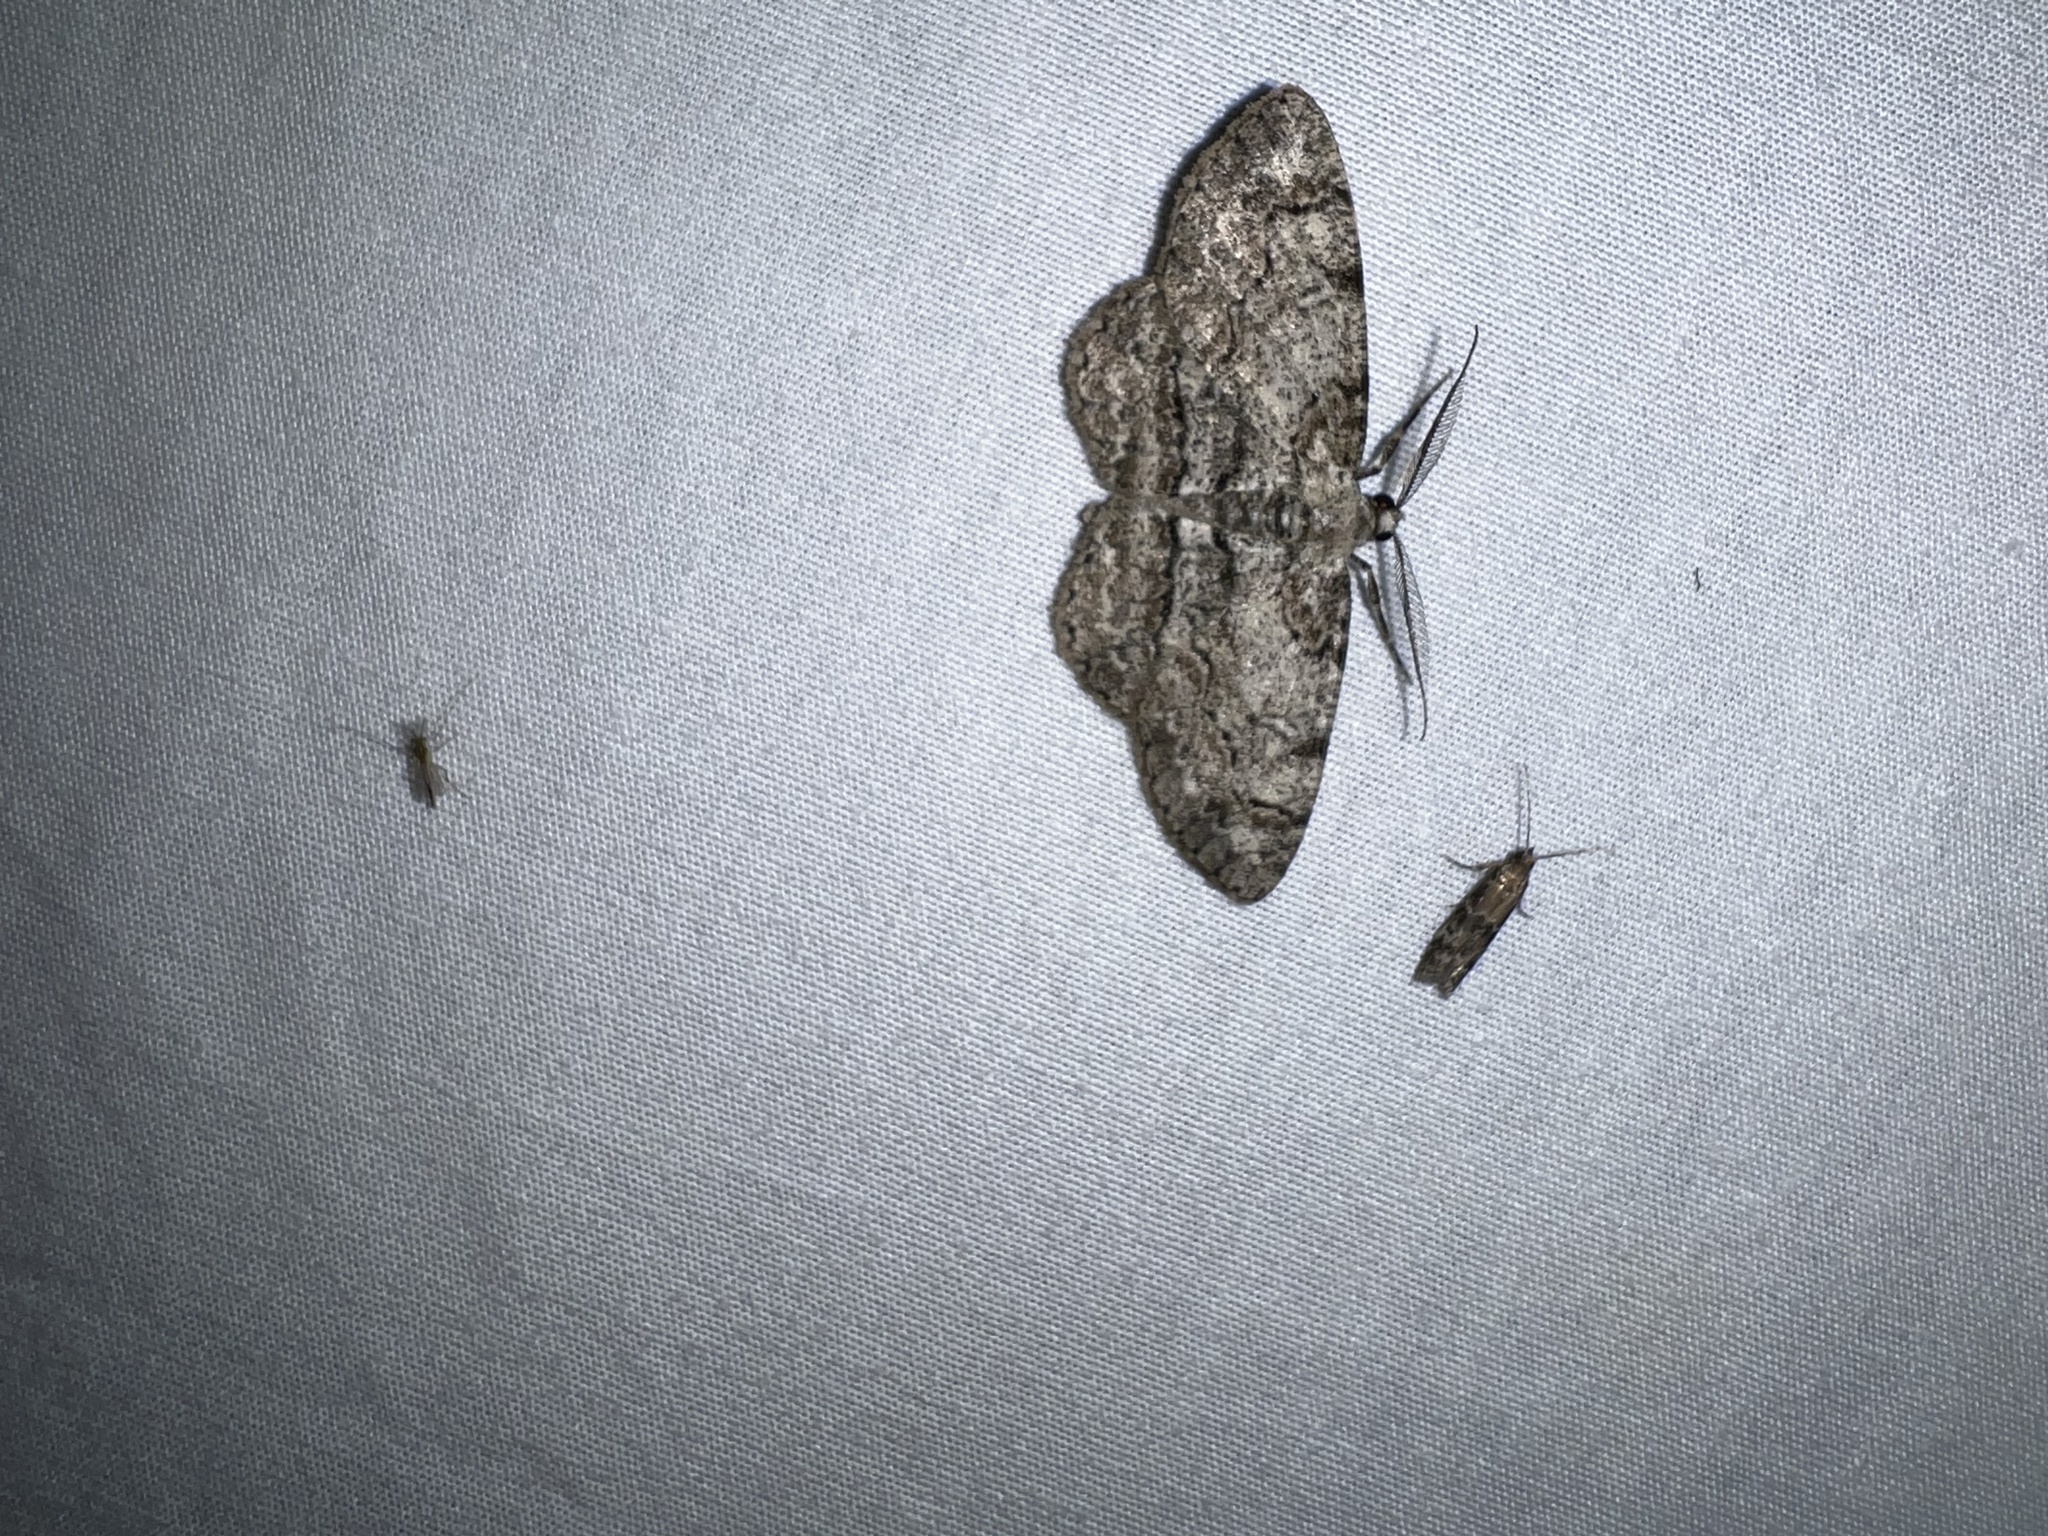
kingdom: Animalia
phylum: Arthropoda
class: Insecta
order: Lepidoptera
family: Geometridae
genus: Anavitrinella
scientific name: Anavitrinella pampinaria
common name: Common gray
